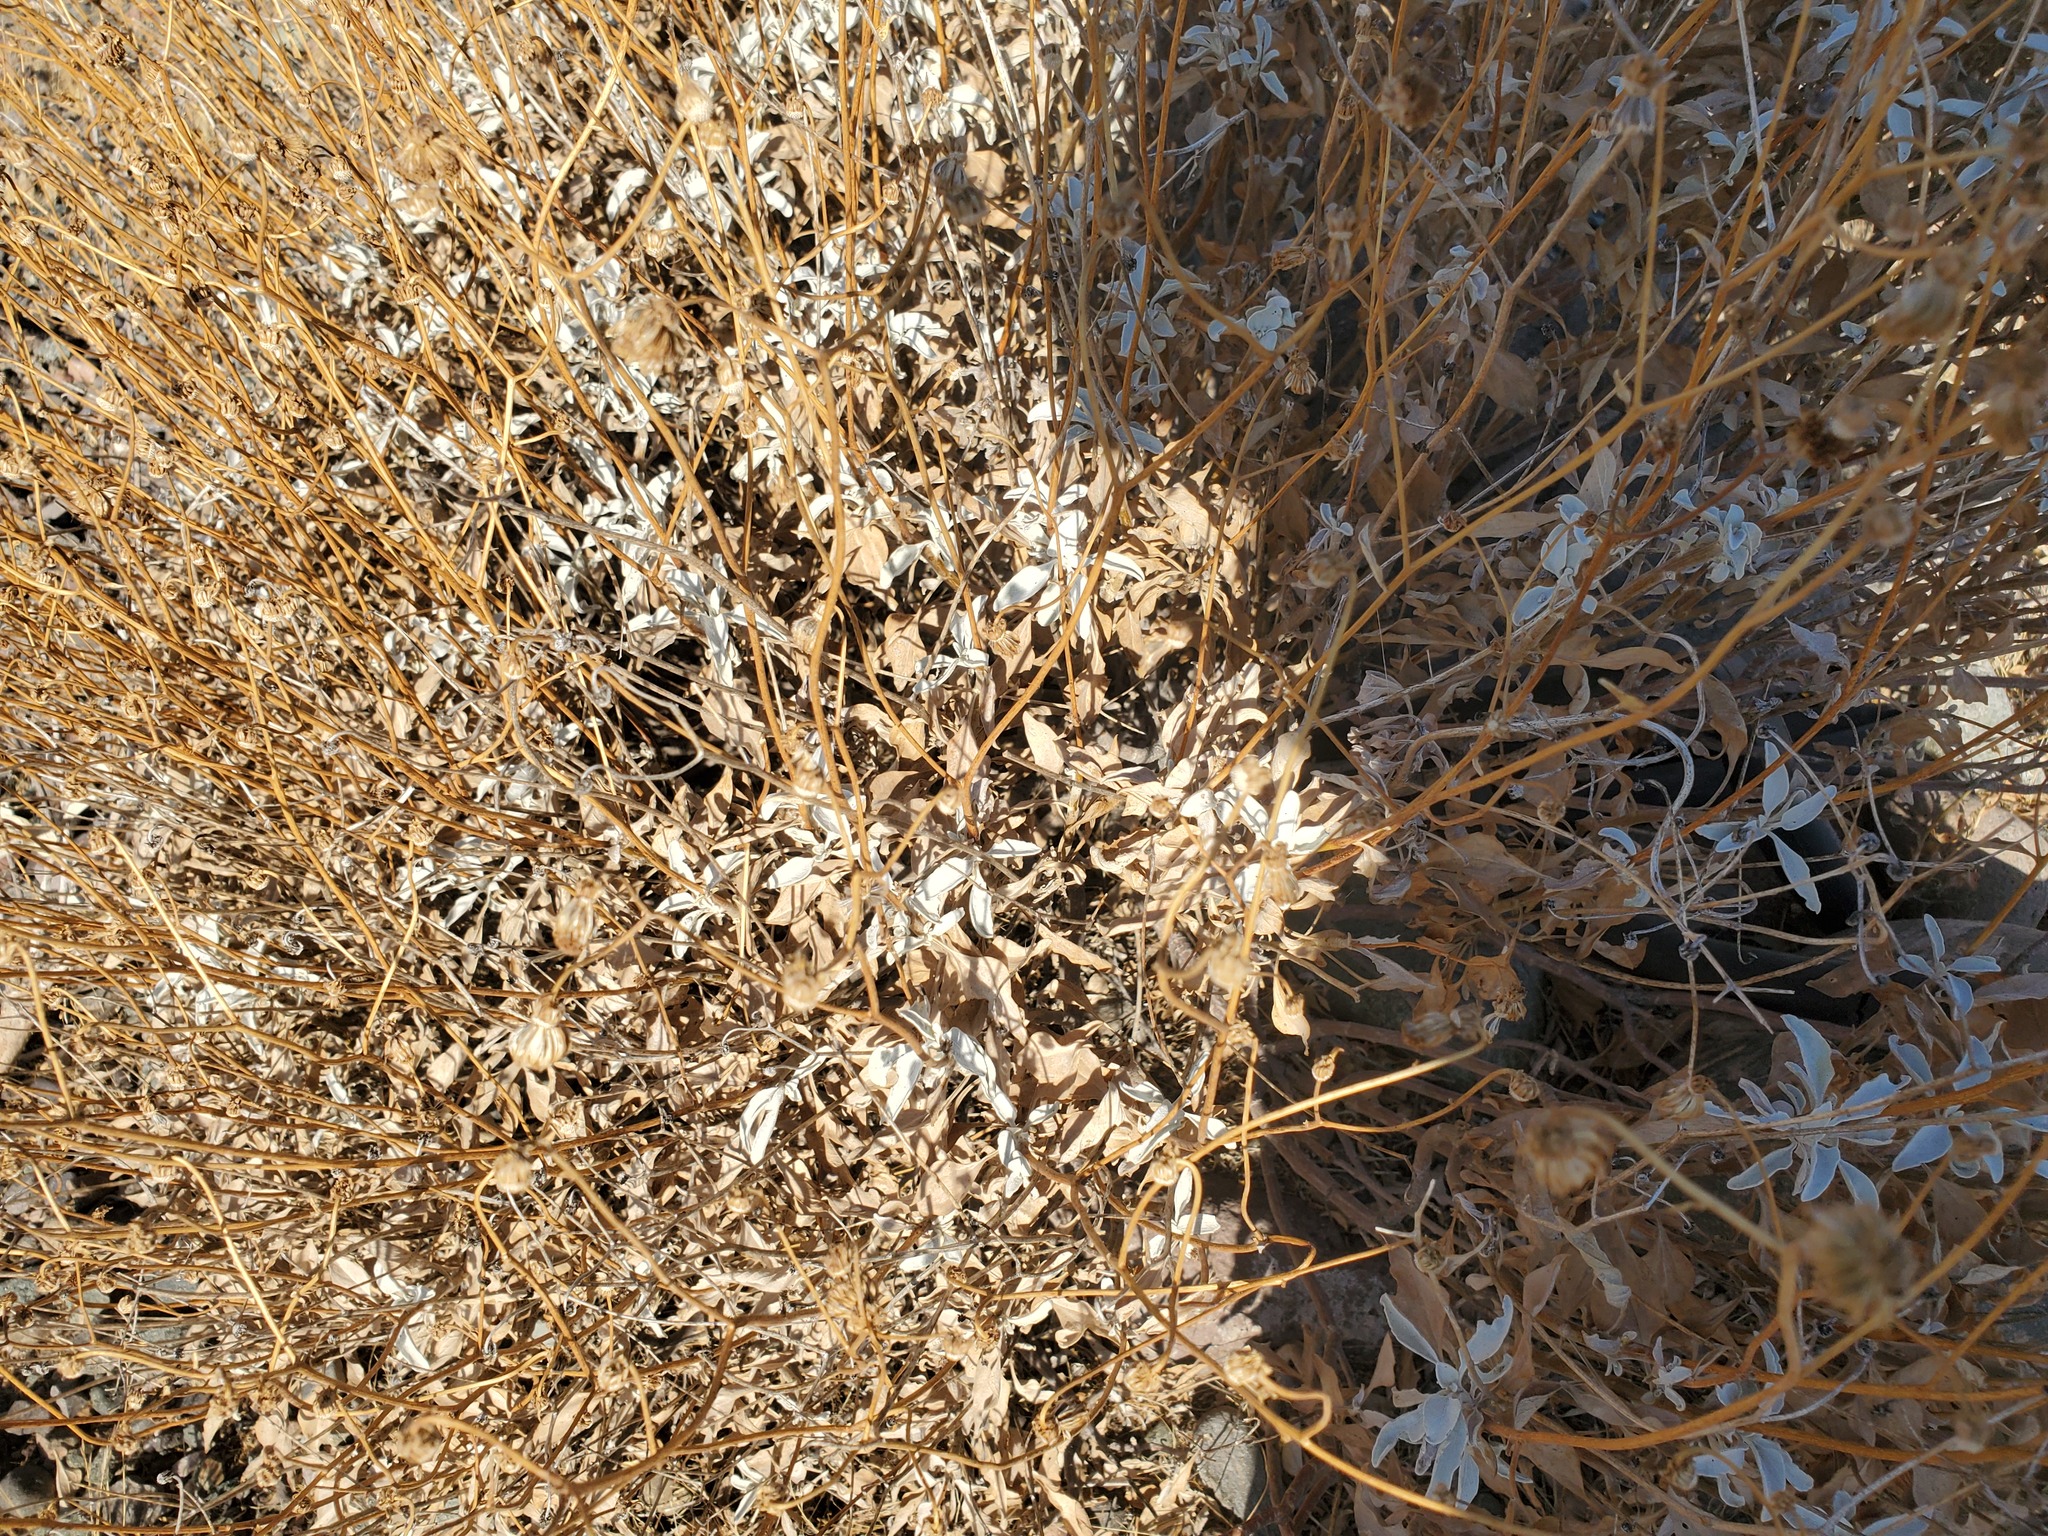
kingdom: Plantae
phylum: Tracheophyta
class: Magnoliopsida
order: Asterales
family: Asteraceae
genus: Encelia
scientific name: Encelia farinosa
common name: Brittlebush
